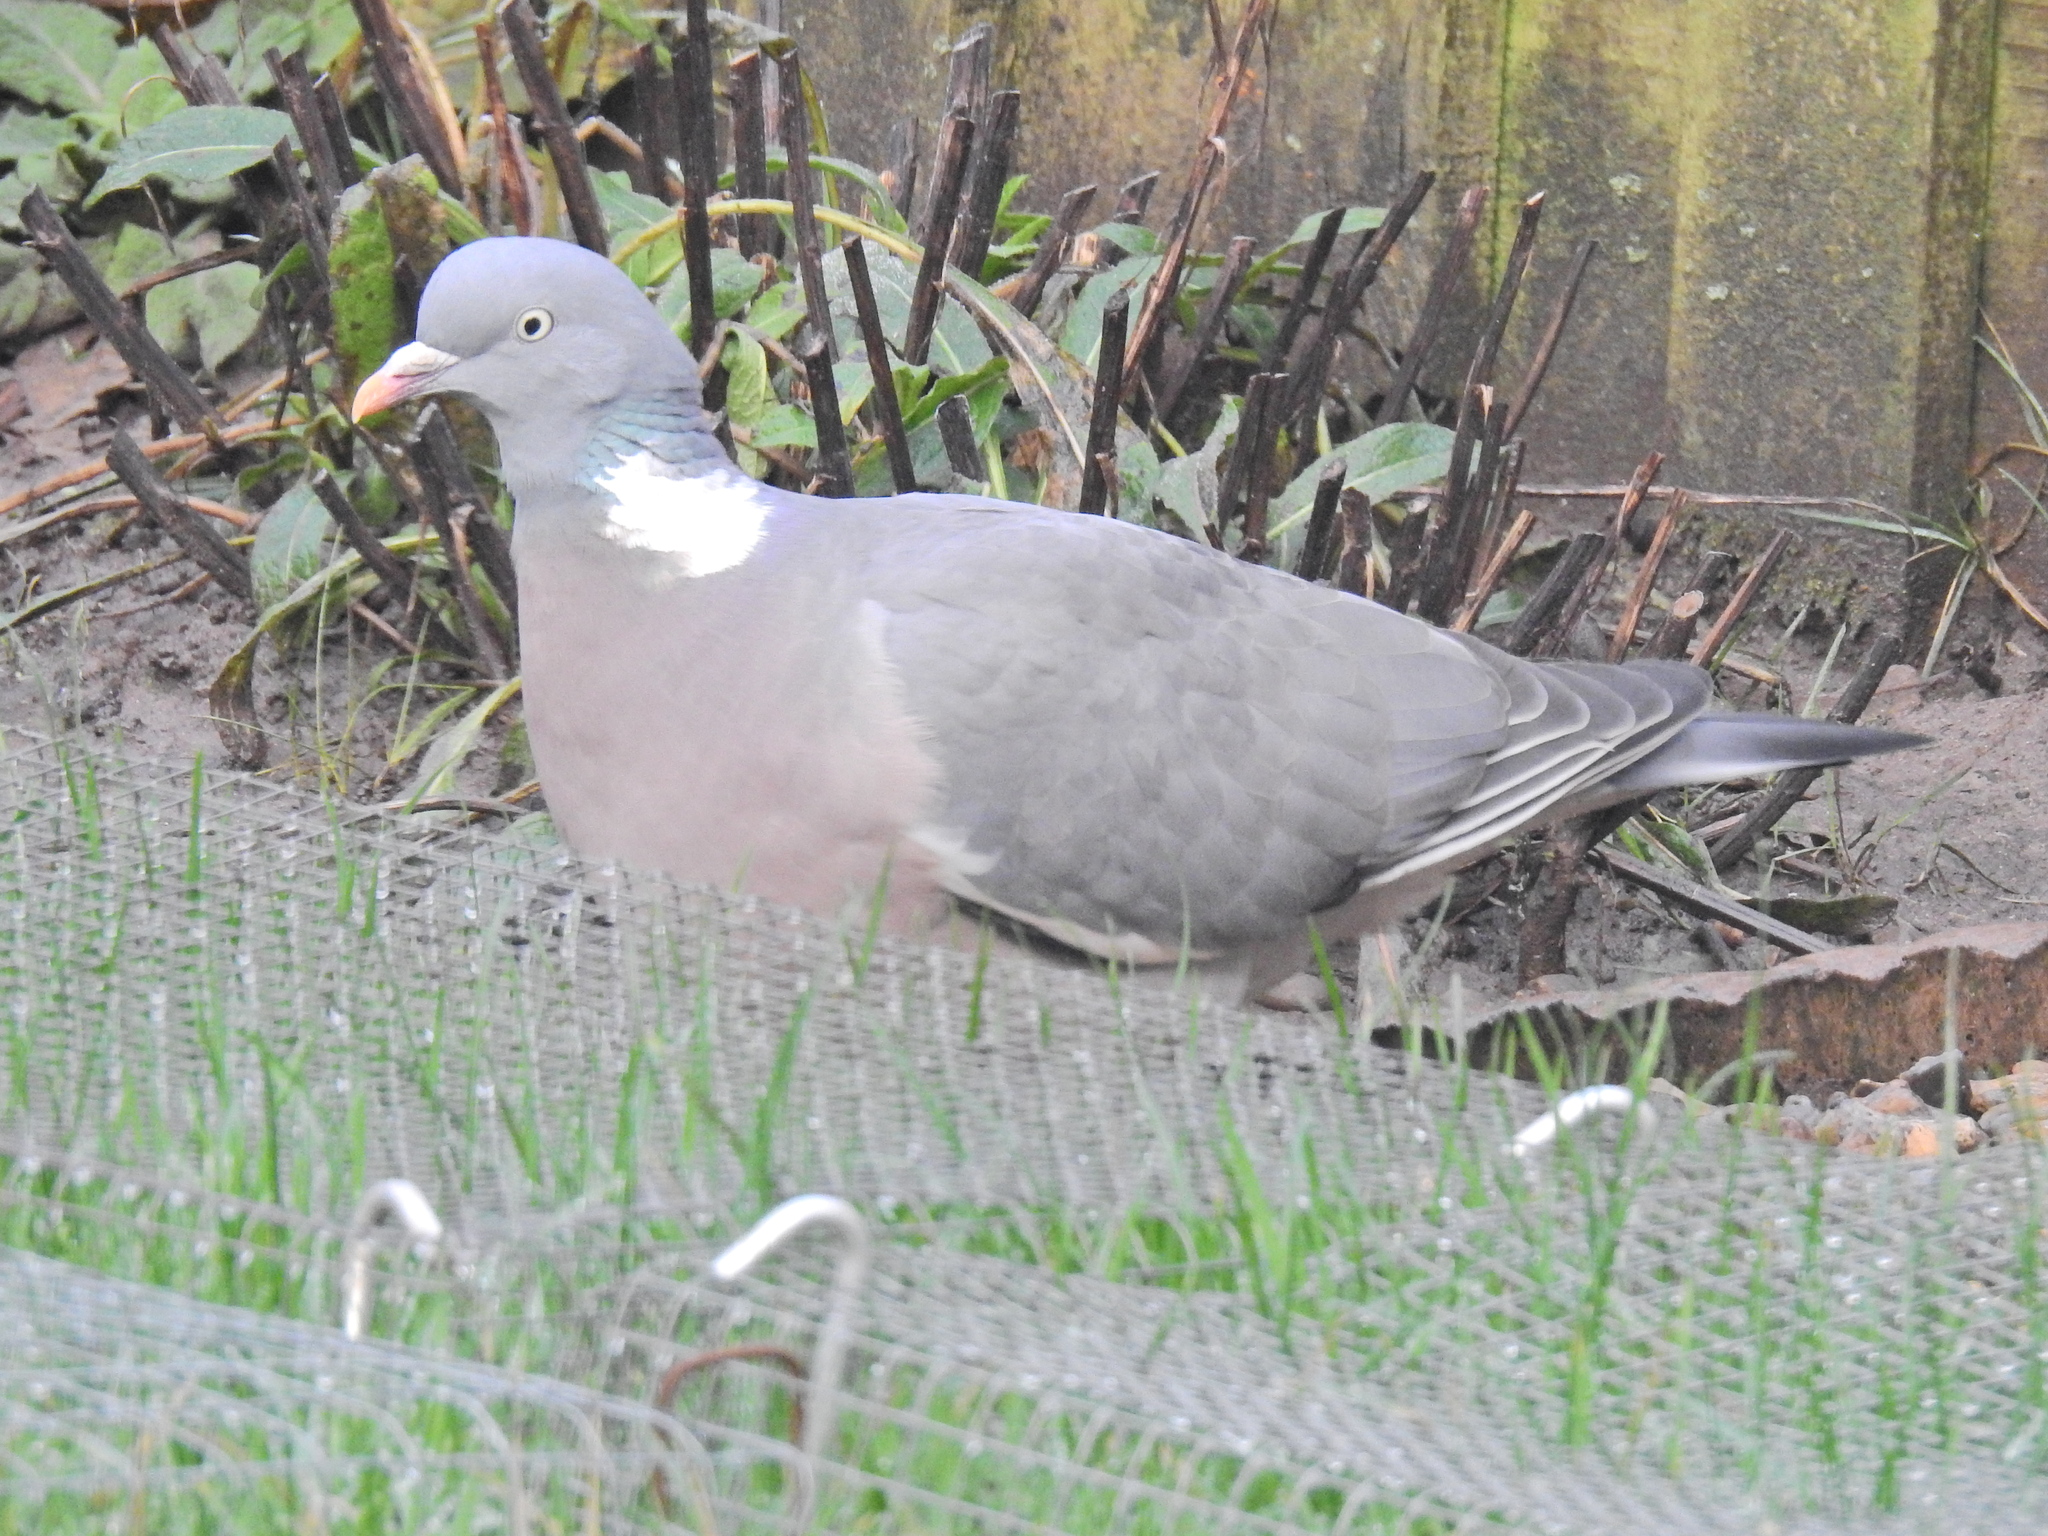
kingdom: Animalia
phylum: Chordata
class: Aves
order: Columbiformes
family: Columbidae
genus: Columba
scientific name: Columba palumbus
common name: Common wood pigeon
